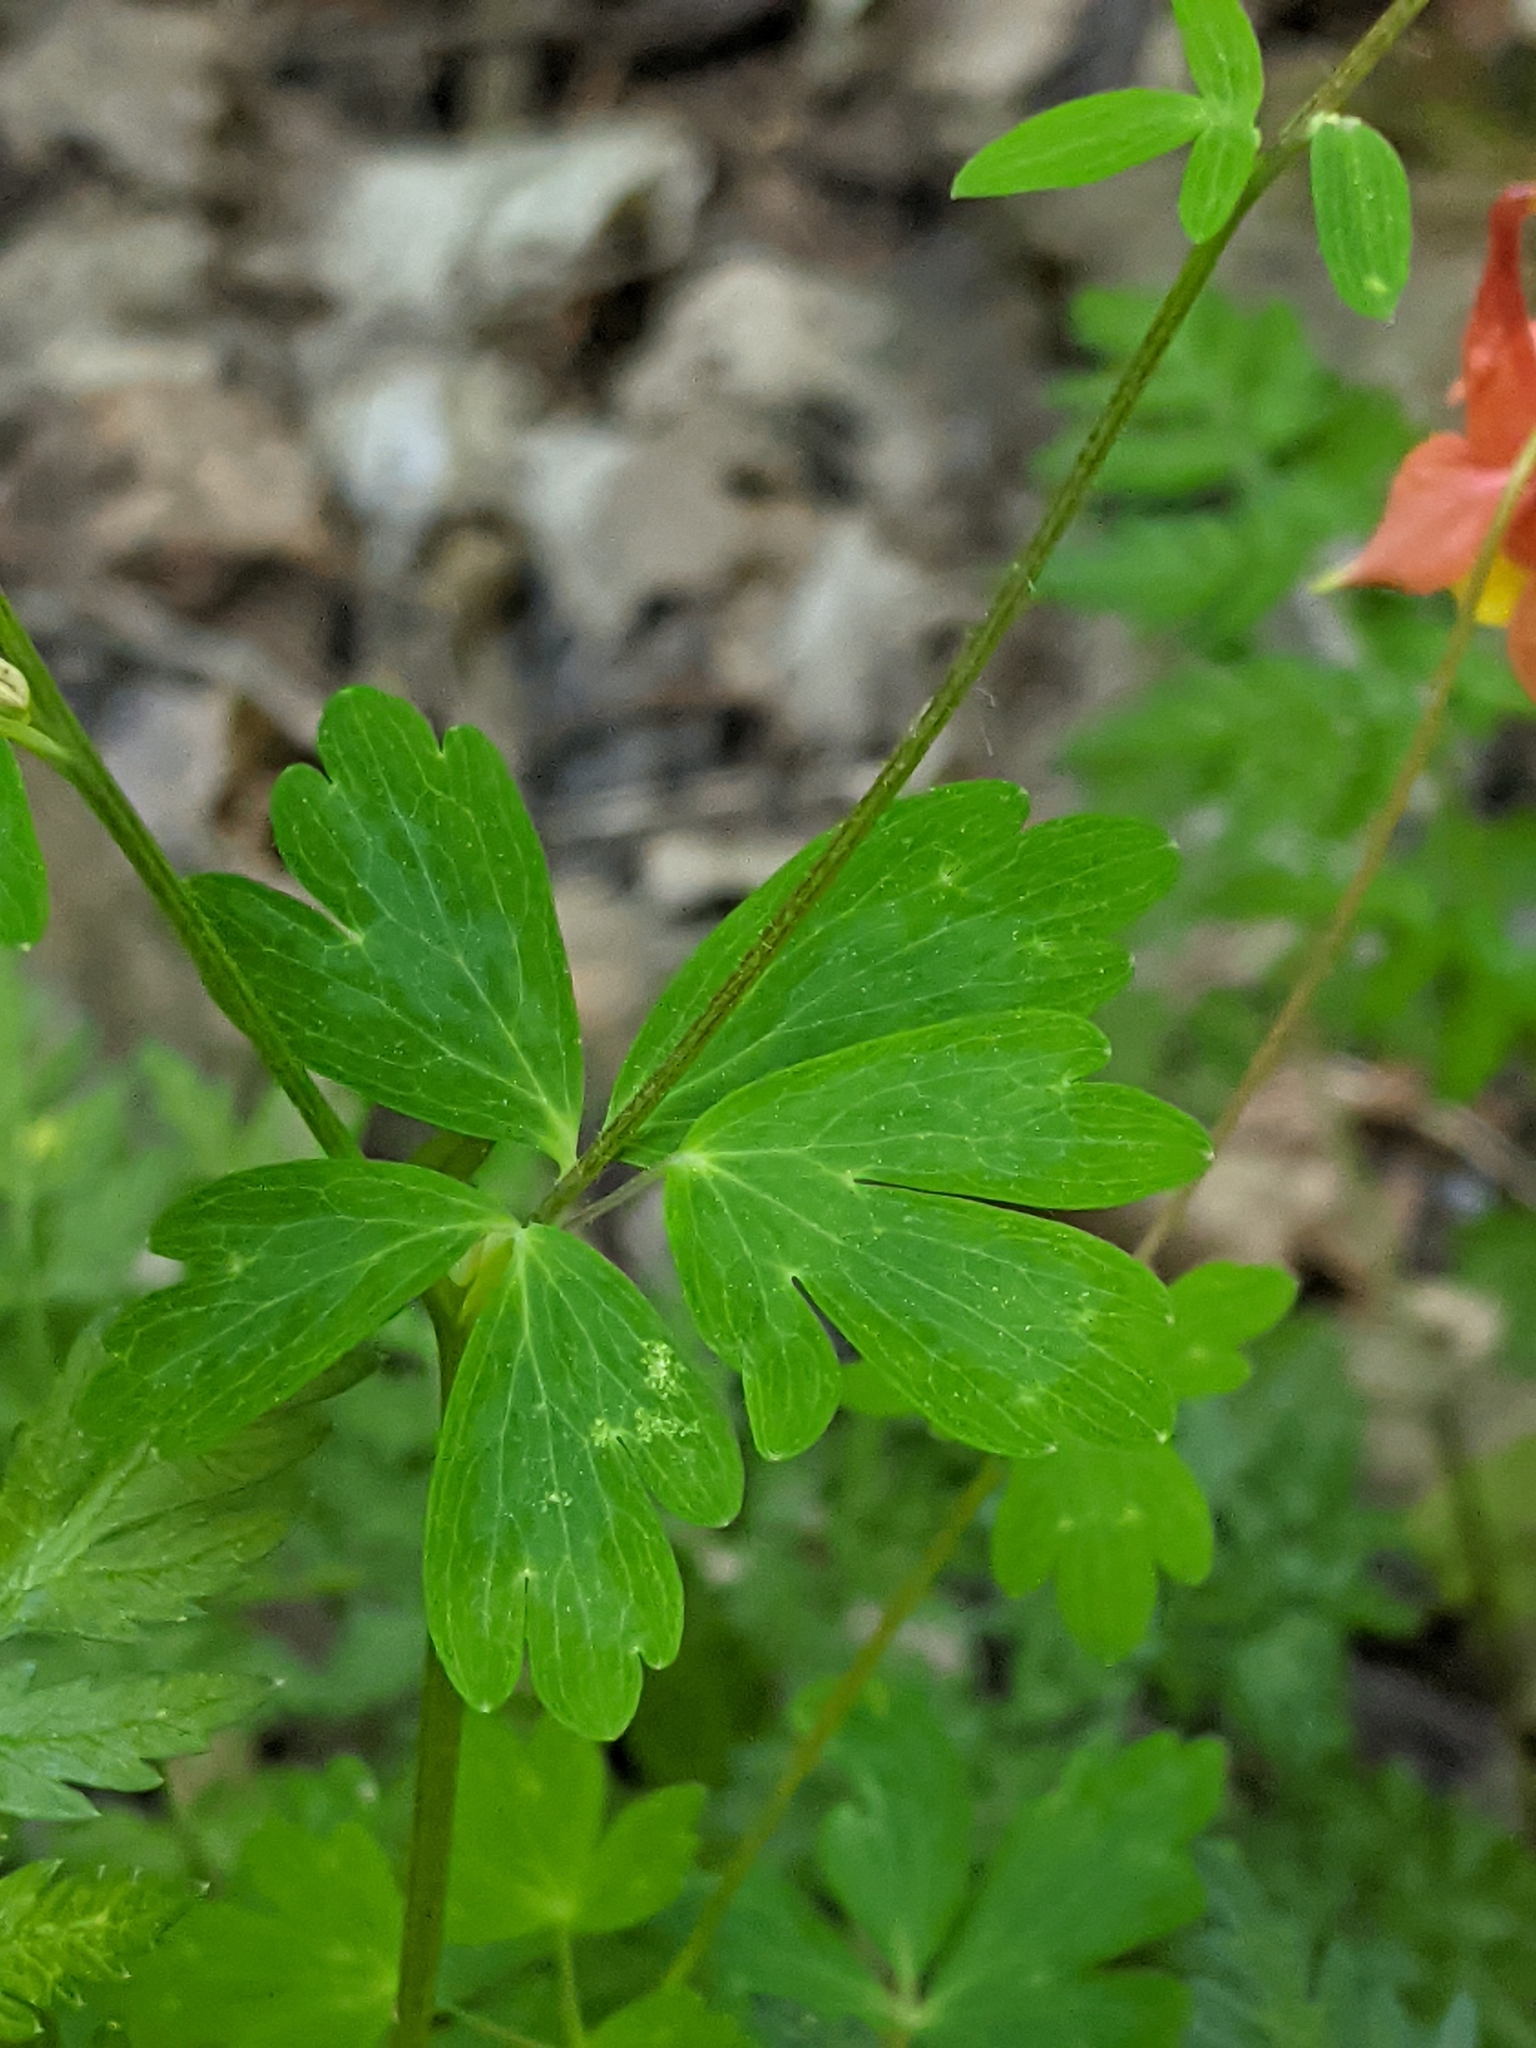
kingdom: Plantae
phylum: Tracheophyta
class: Magnoliopsida
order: Ranunculales
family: Ranunculaceae
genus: Aquilegia
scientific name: Aquilegia canadensis
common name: American columbine
